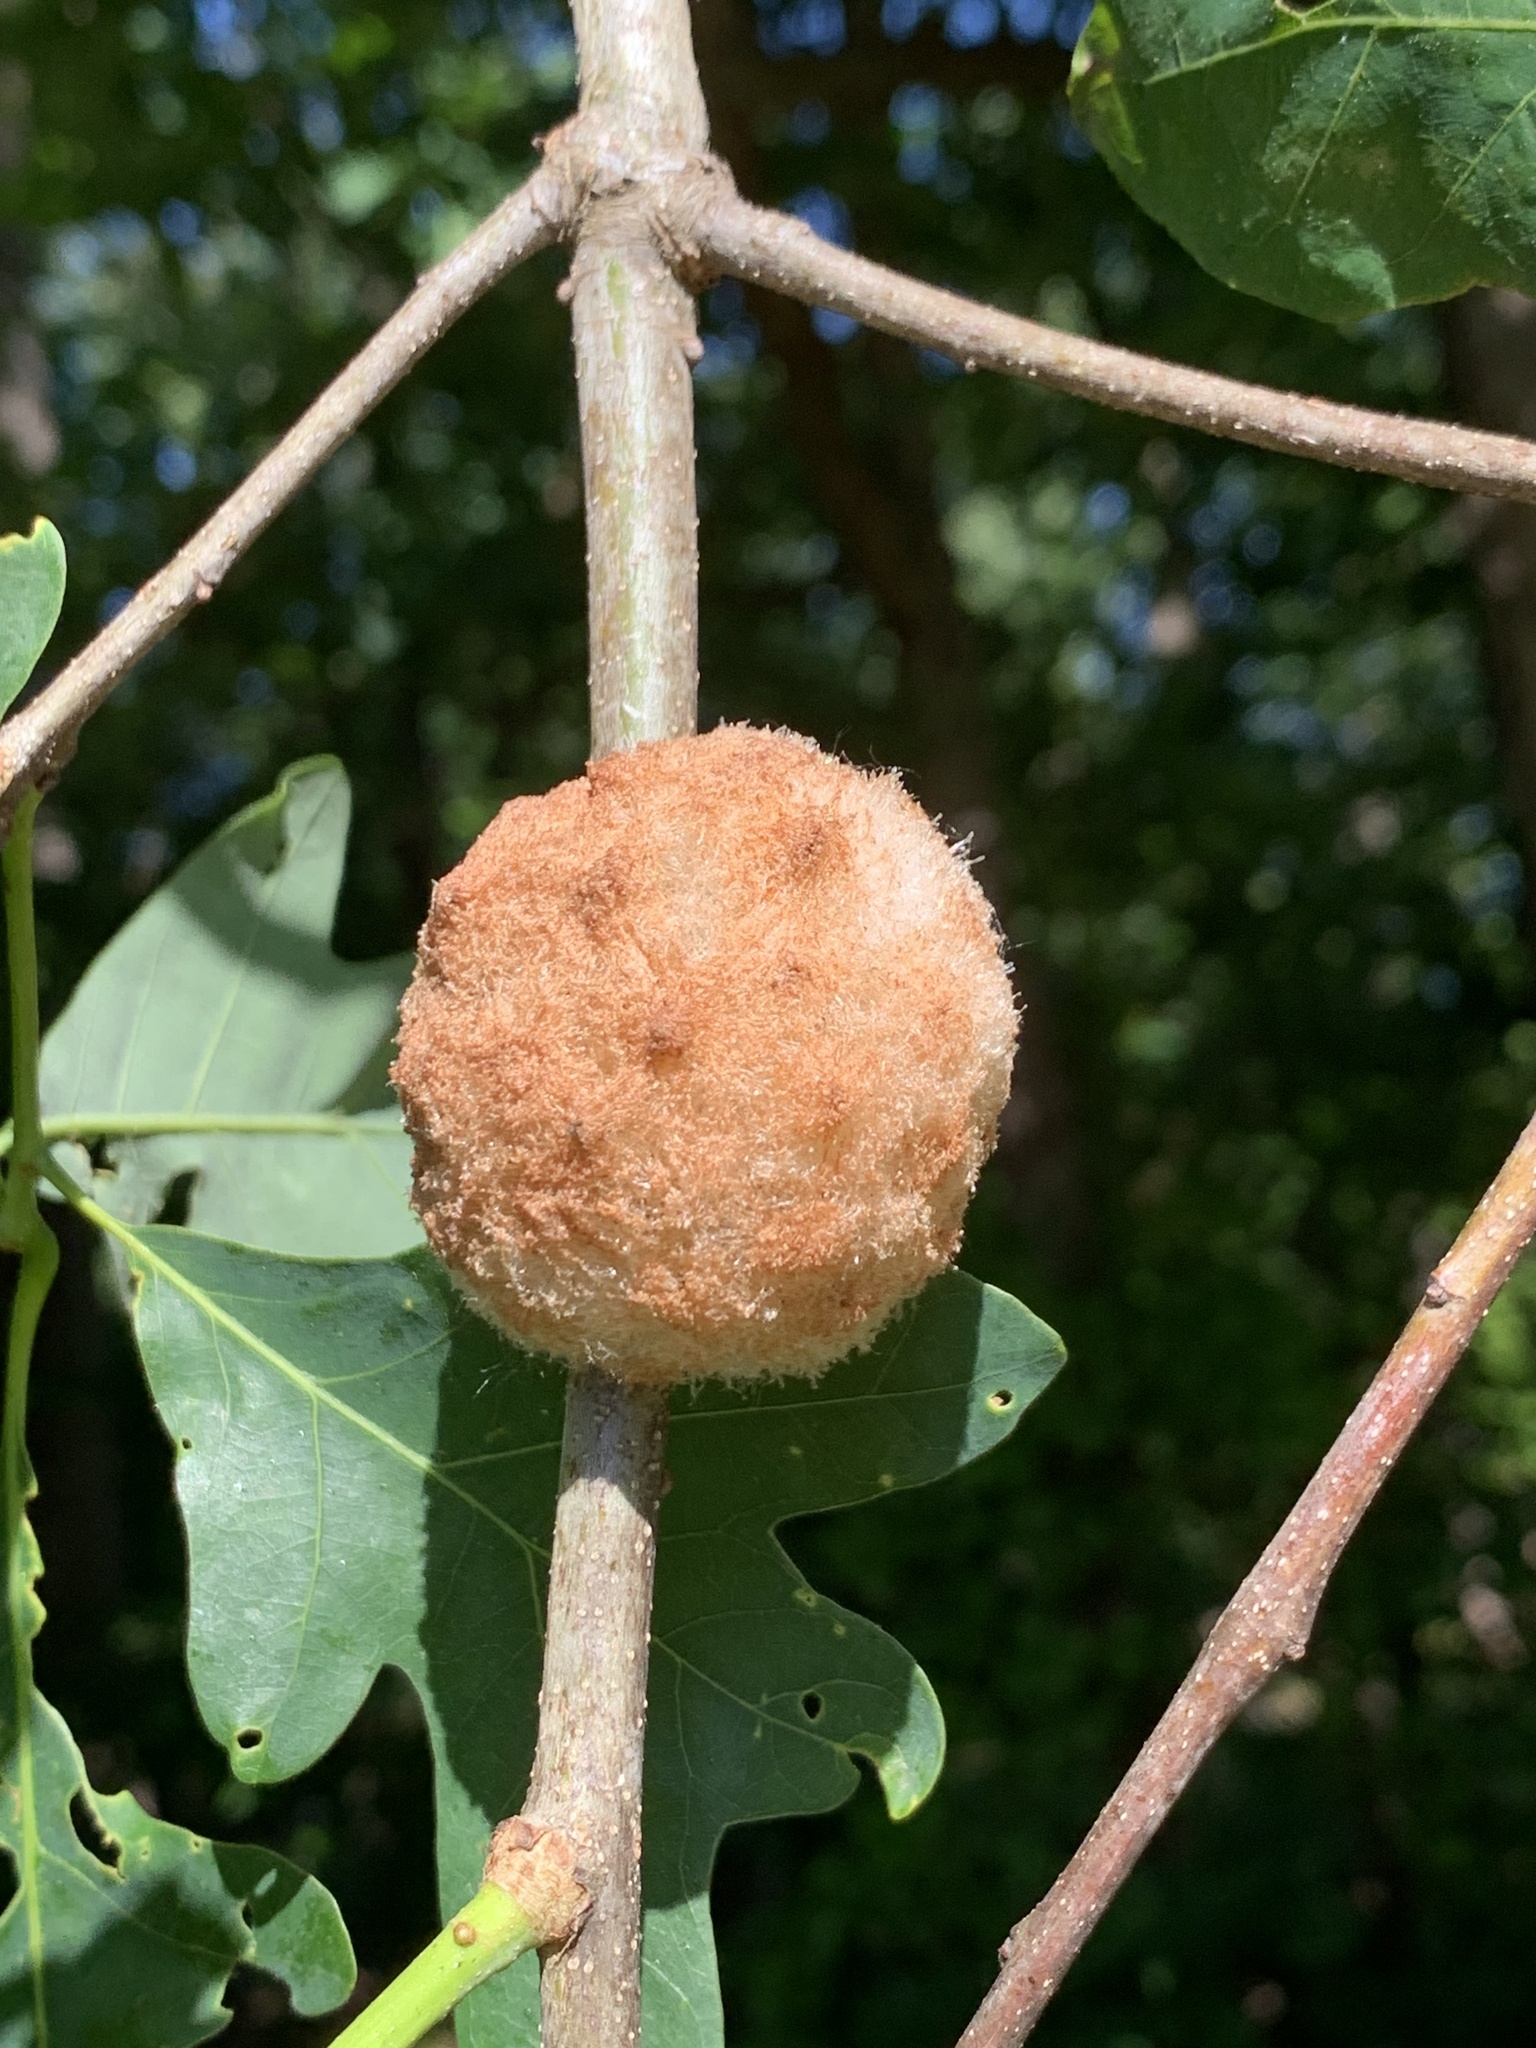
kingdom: Animalia
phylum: Arthropoda
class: Insecta
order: Hymenoptera
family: Cynipidae
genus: Callirhytis
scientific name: Callirhytis
